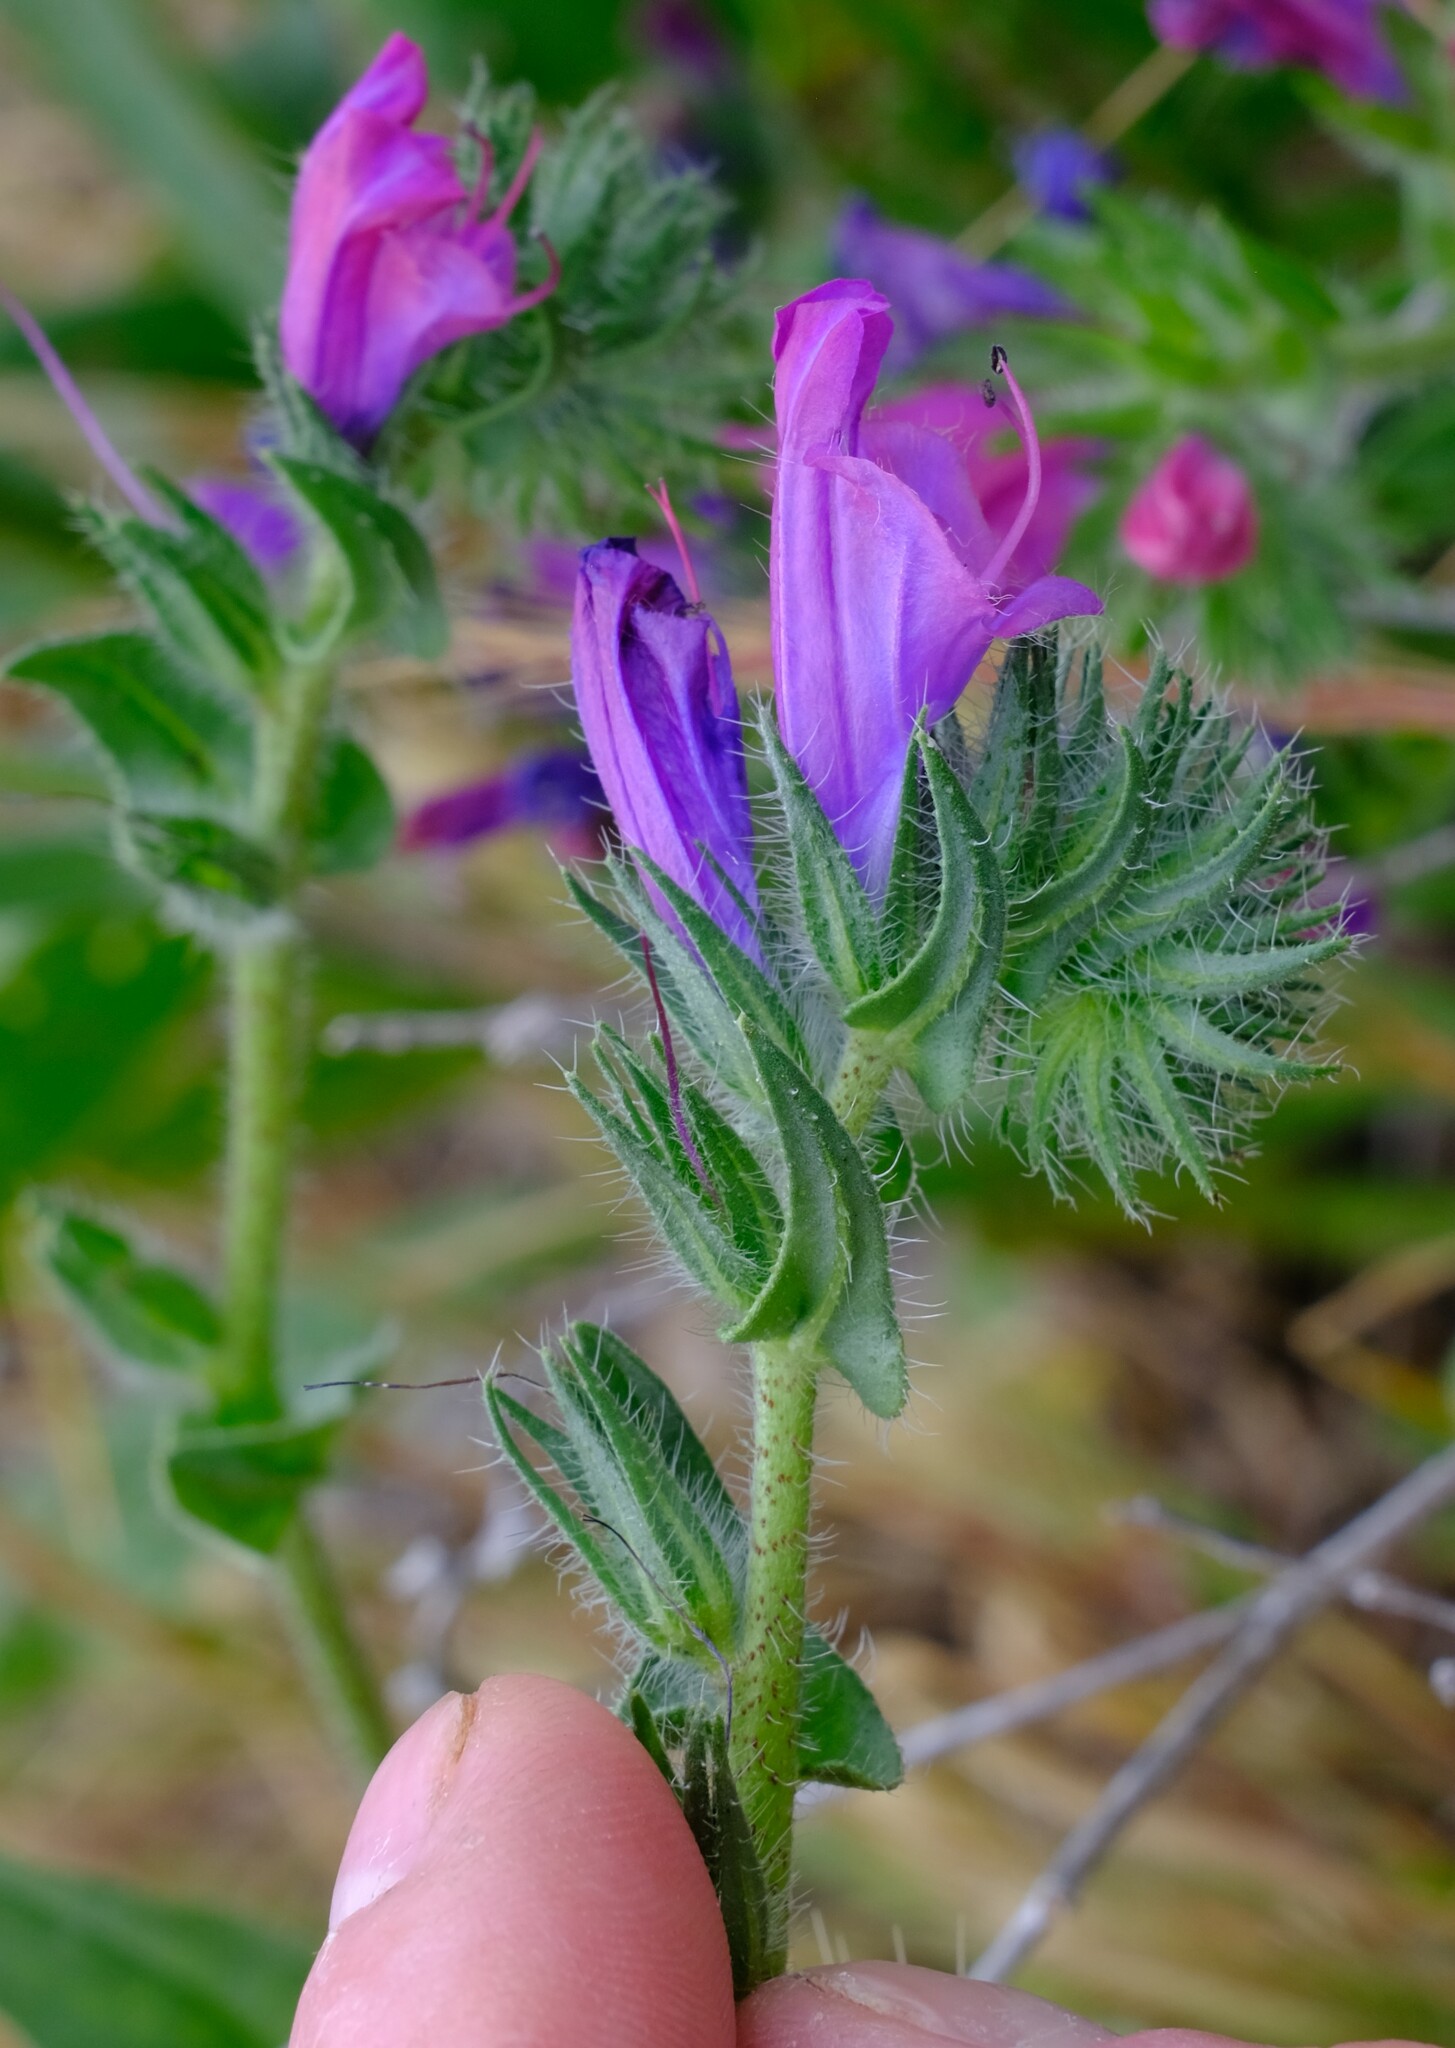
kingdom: Plantae
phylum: Tracheophyta
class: Magnoliopsida
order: Boraginales
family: Boraginaceae
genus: Echium
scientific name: Echium plantagineum
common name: Purple viper's-bugloss
